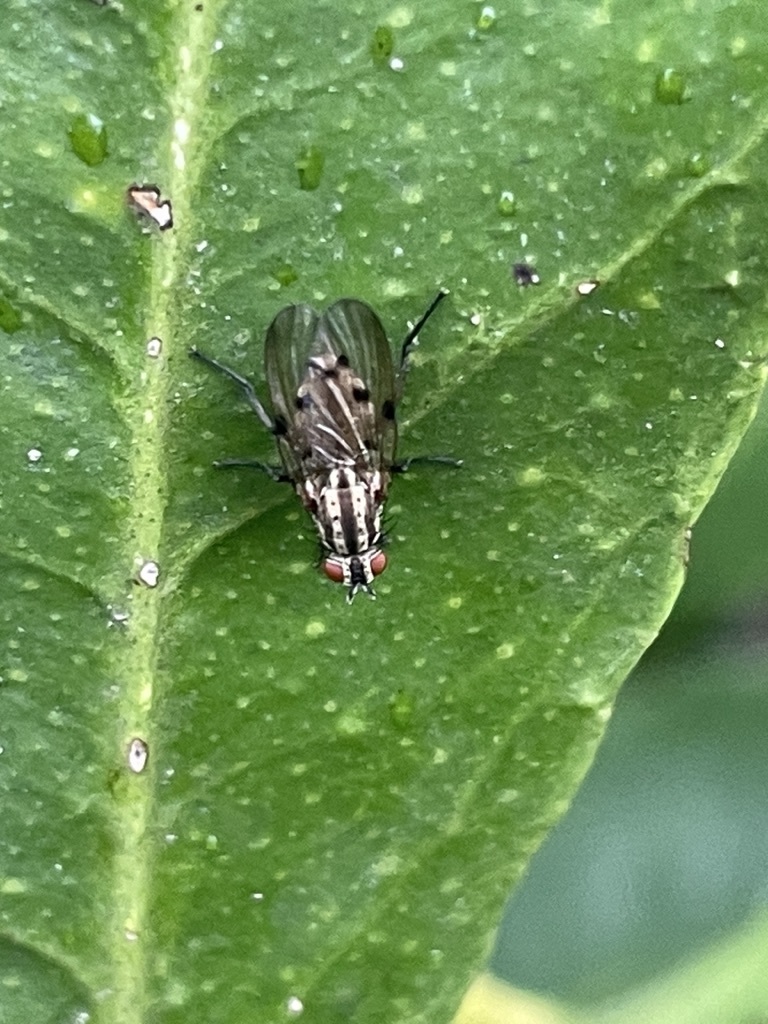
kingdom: Animalia
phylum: Arthropoda
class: Insecta
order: Diptera
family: Anthomyiidae
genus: Anthomyia
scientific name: Anthomyia punctipennis
